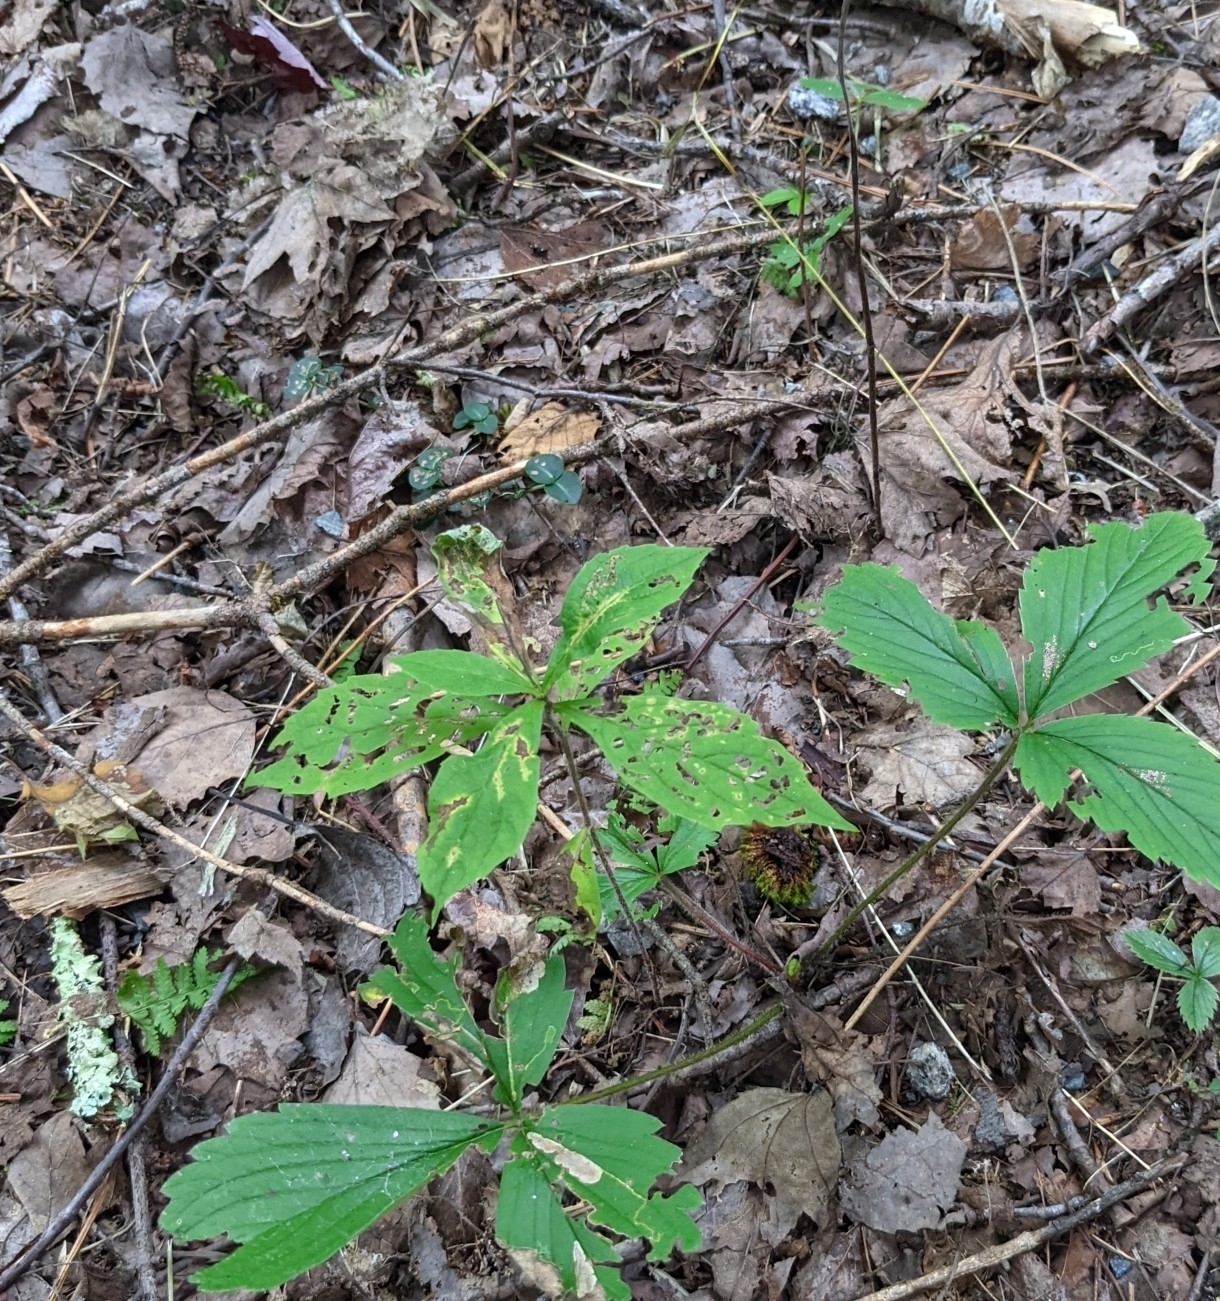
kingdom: Plantae
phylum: Tracheophyta
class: Magnoliopsida
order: Ericales
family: Primulaceae
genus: Lysimachia
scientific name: Lysimachia borealis
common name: American starflower
